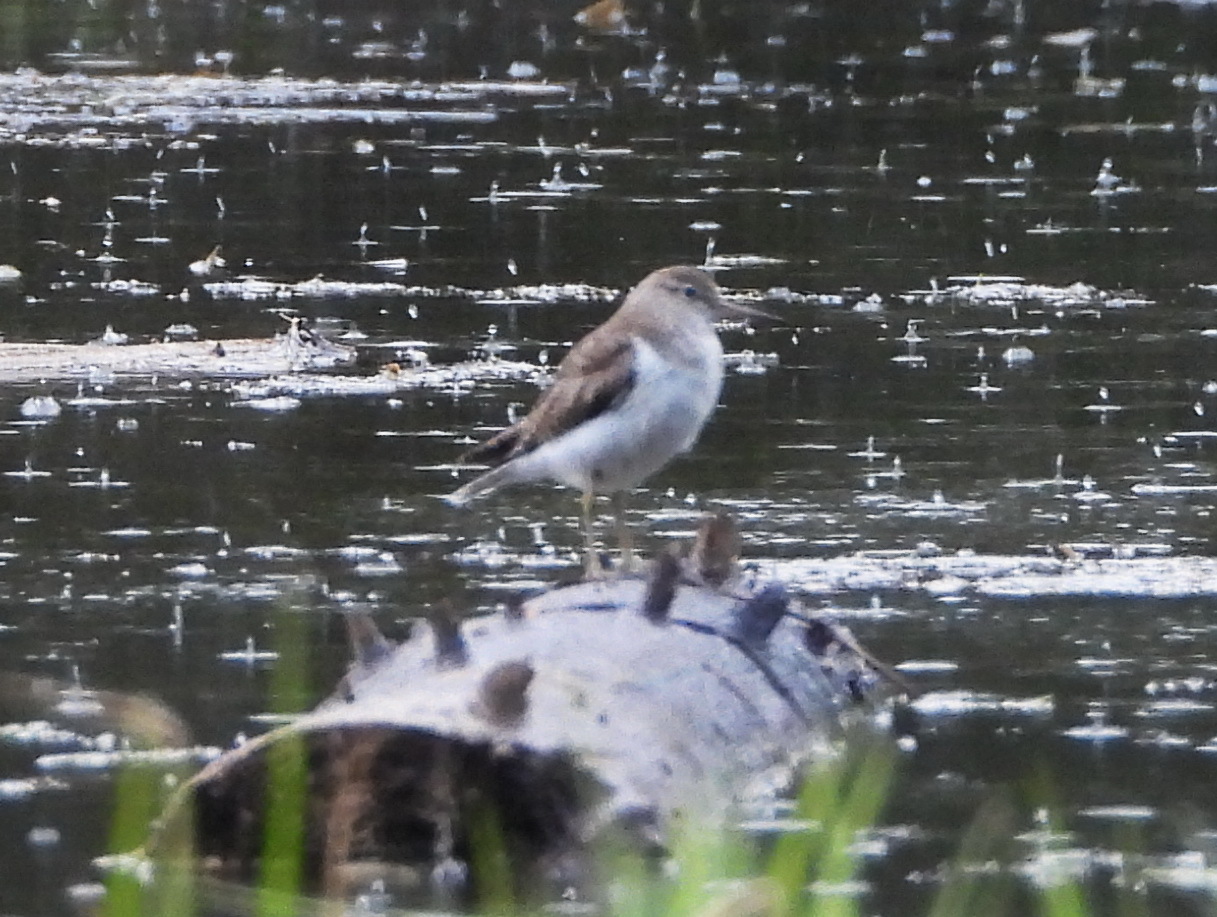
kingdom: Animalia
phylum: Chordata
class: Aves
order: Charadriiformes
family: Scolopacidae
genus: Actitis
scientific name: Actitis hypoleucos
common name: Common sandpiper
